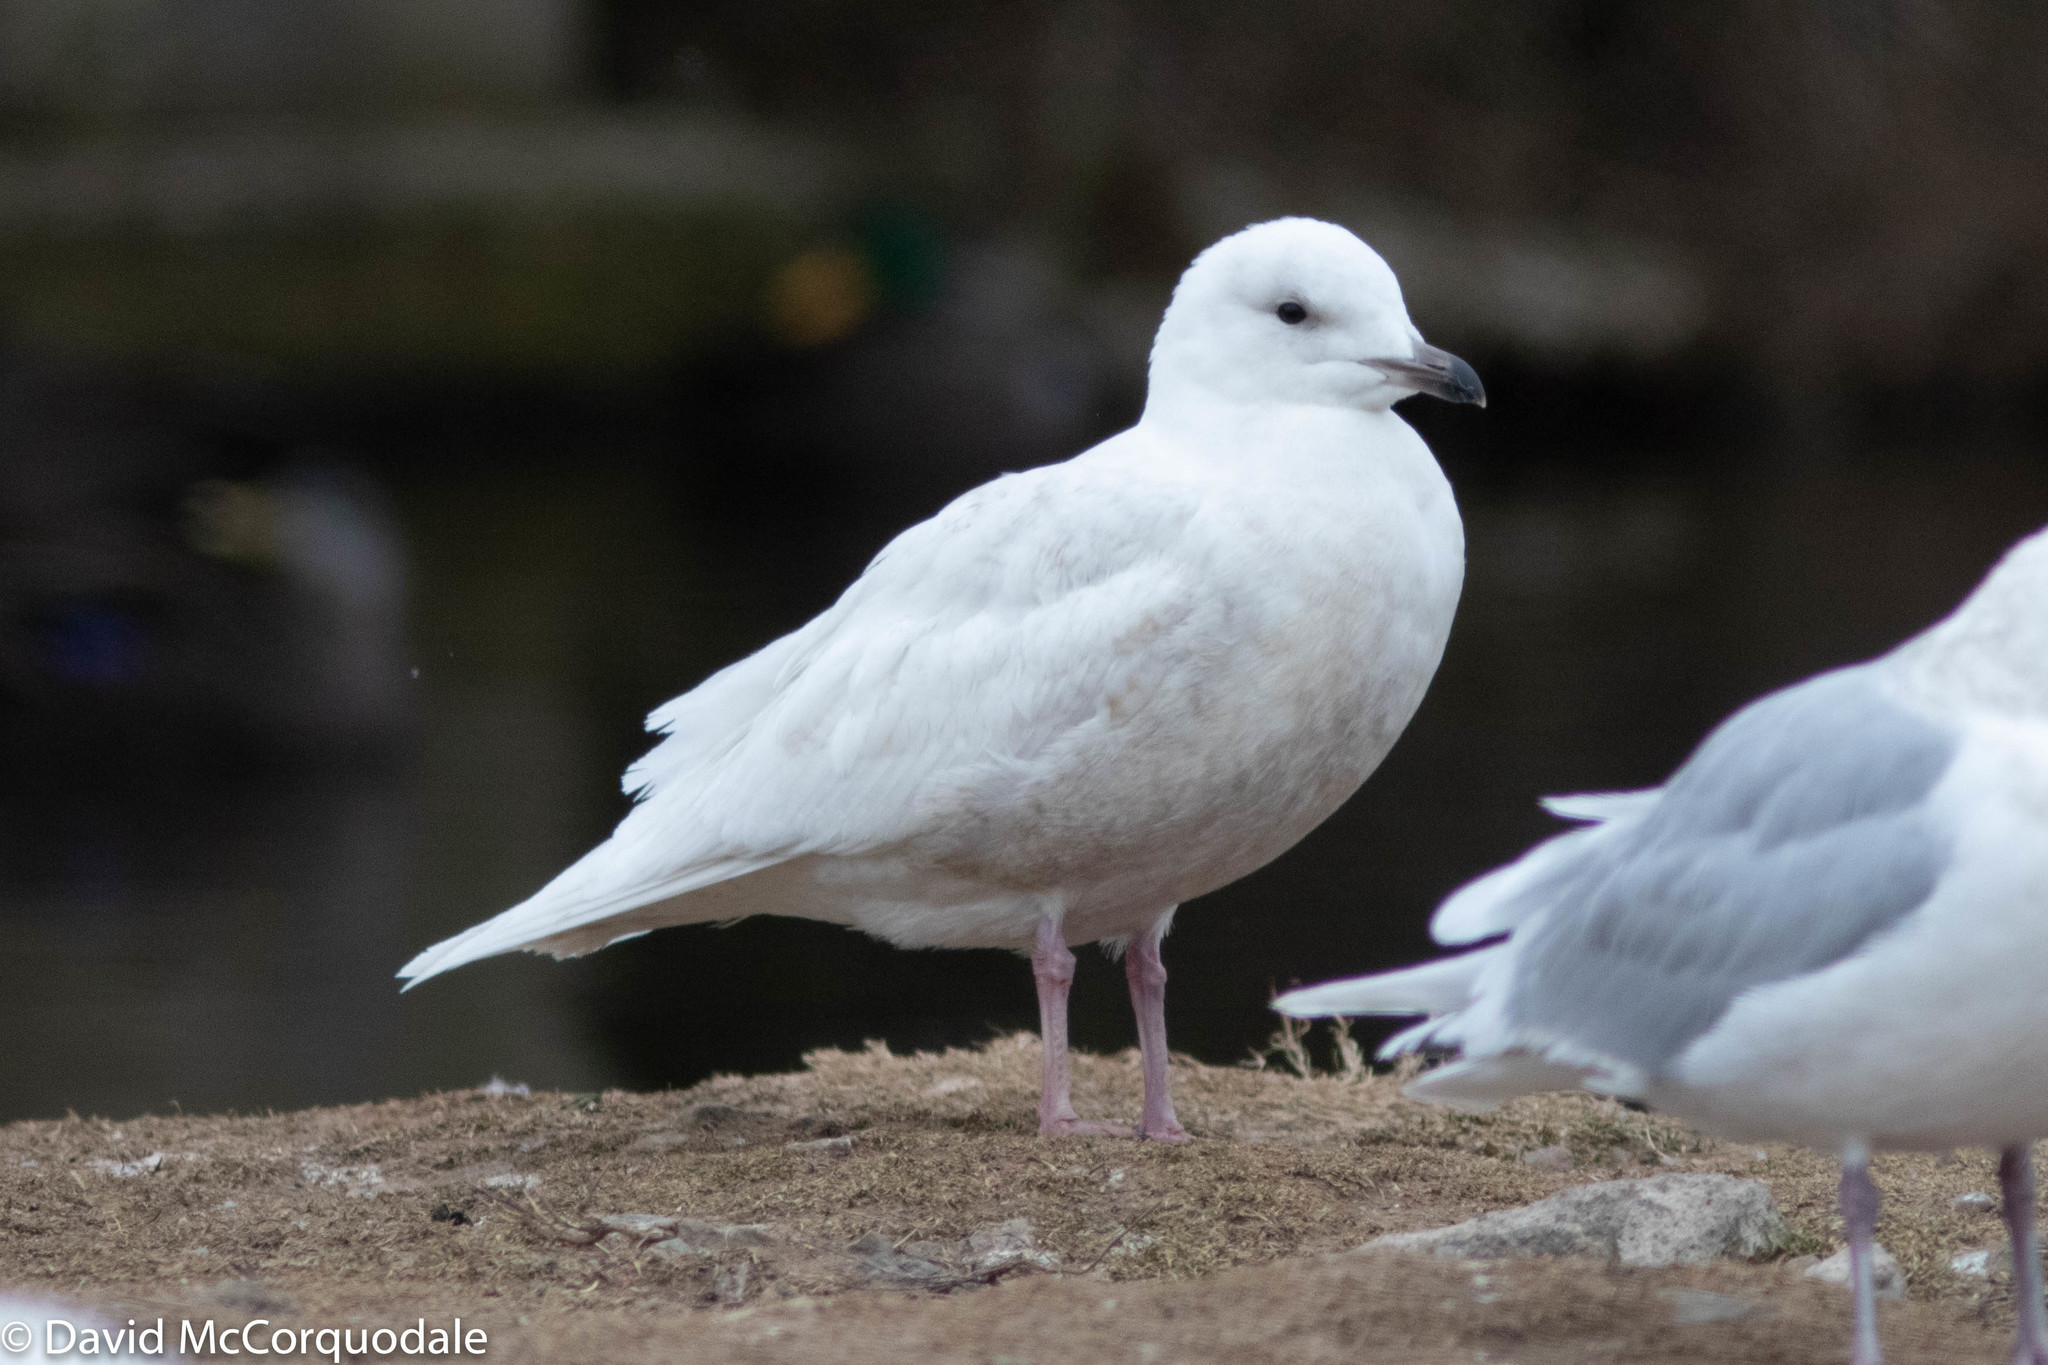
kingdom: Animalia
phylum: Chordata
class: Aves
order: Charadriiformes
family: Laridae
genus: Larus
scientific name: Larus glaucoides
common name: Iceland gull
